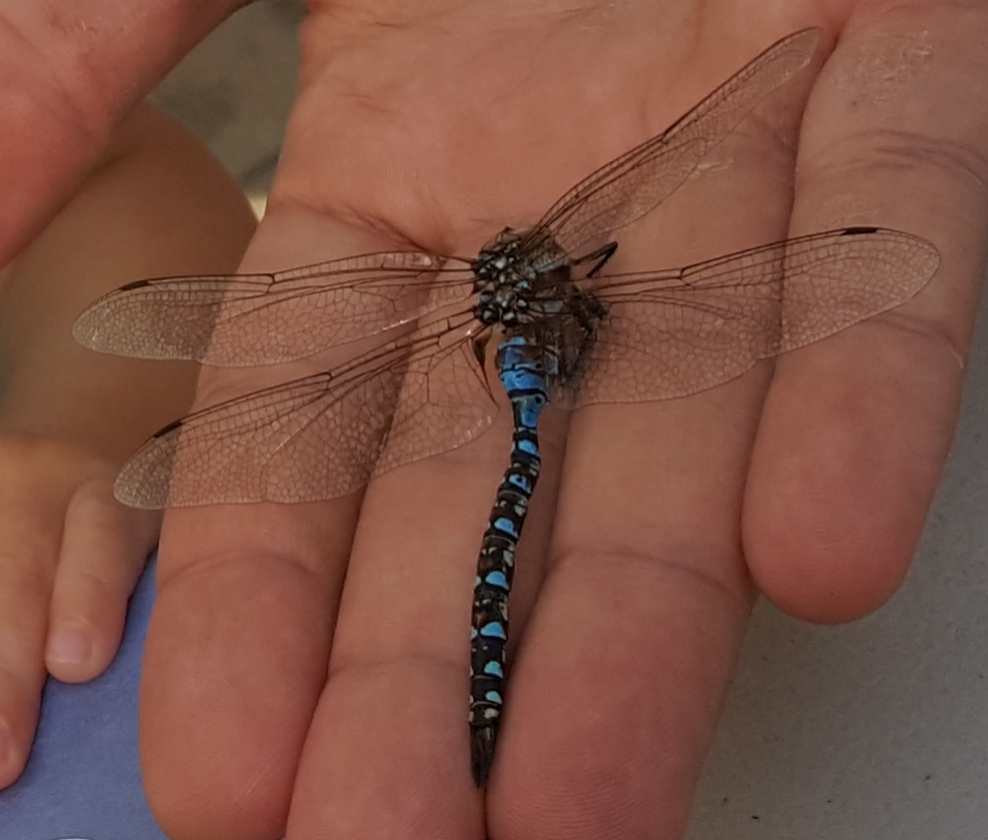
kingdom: Animalia
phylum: Arthropoda
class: Insecta
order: Odonata
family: Aeshnidae
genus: Rhionaeschna
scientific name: Rhionaeschna multicolor
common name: Blue-eyed darner
